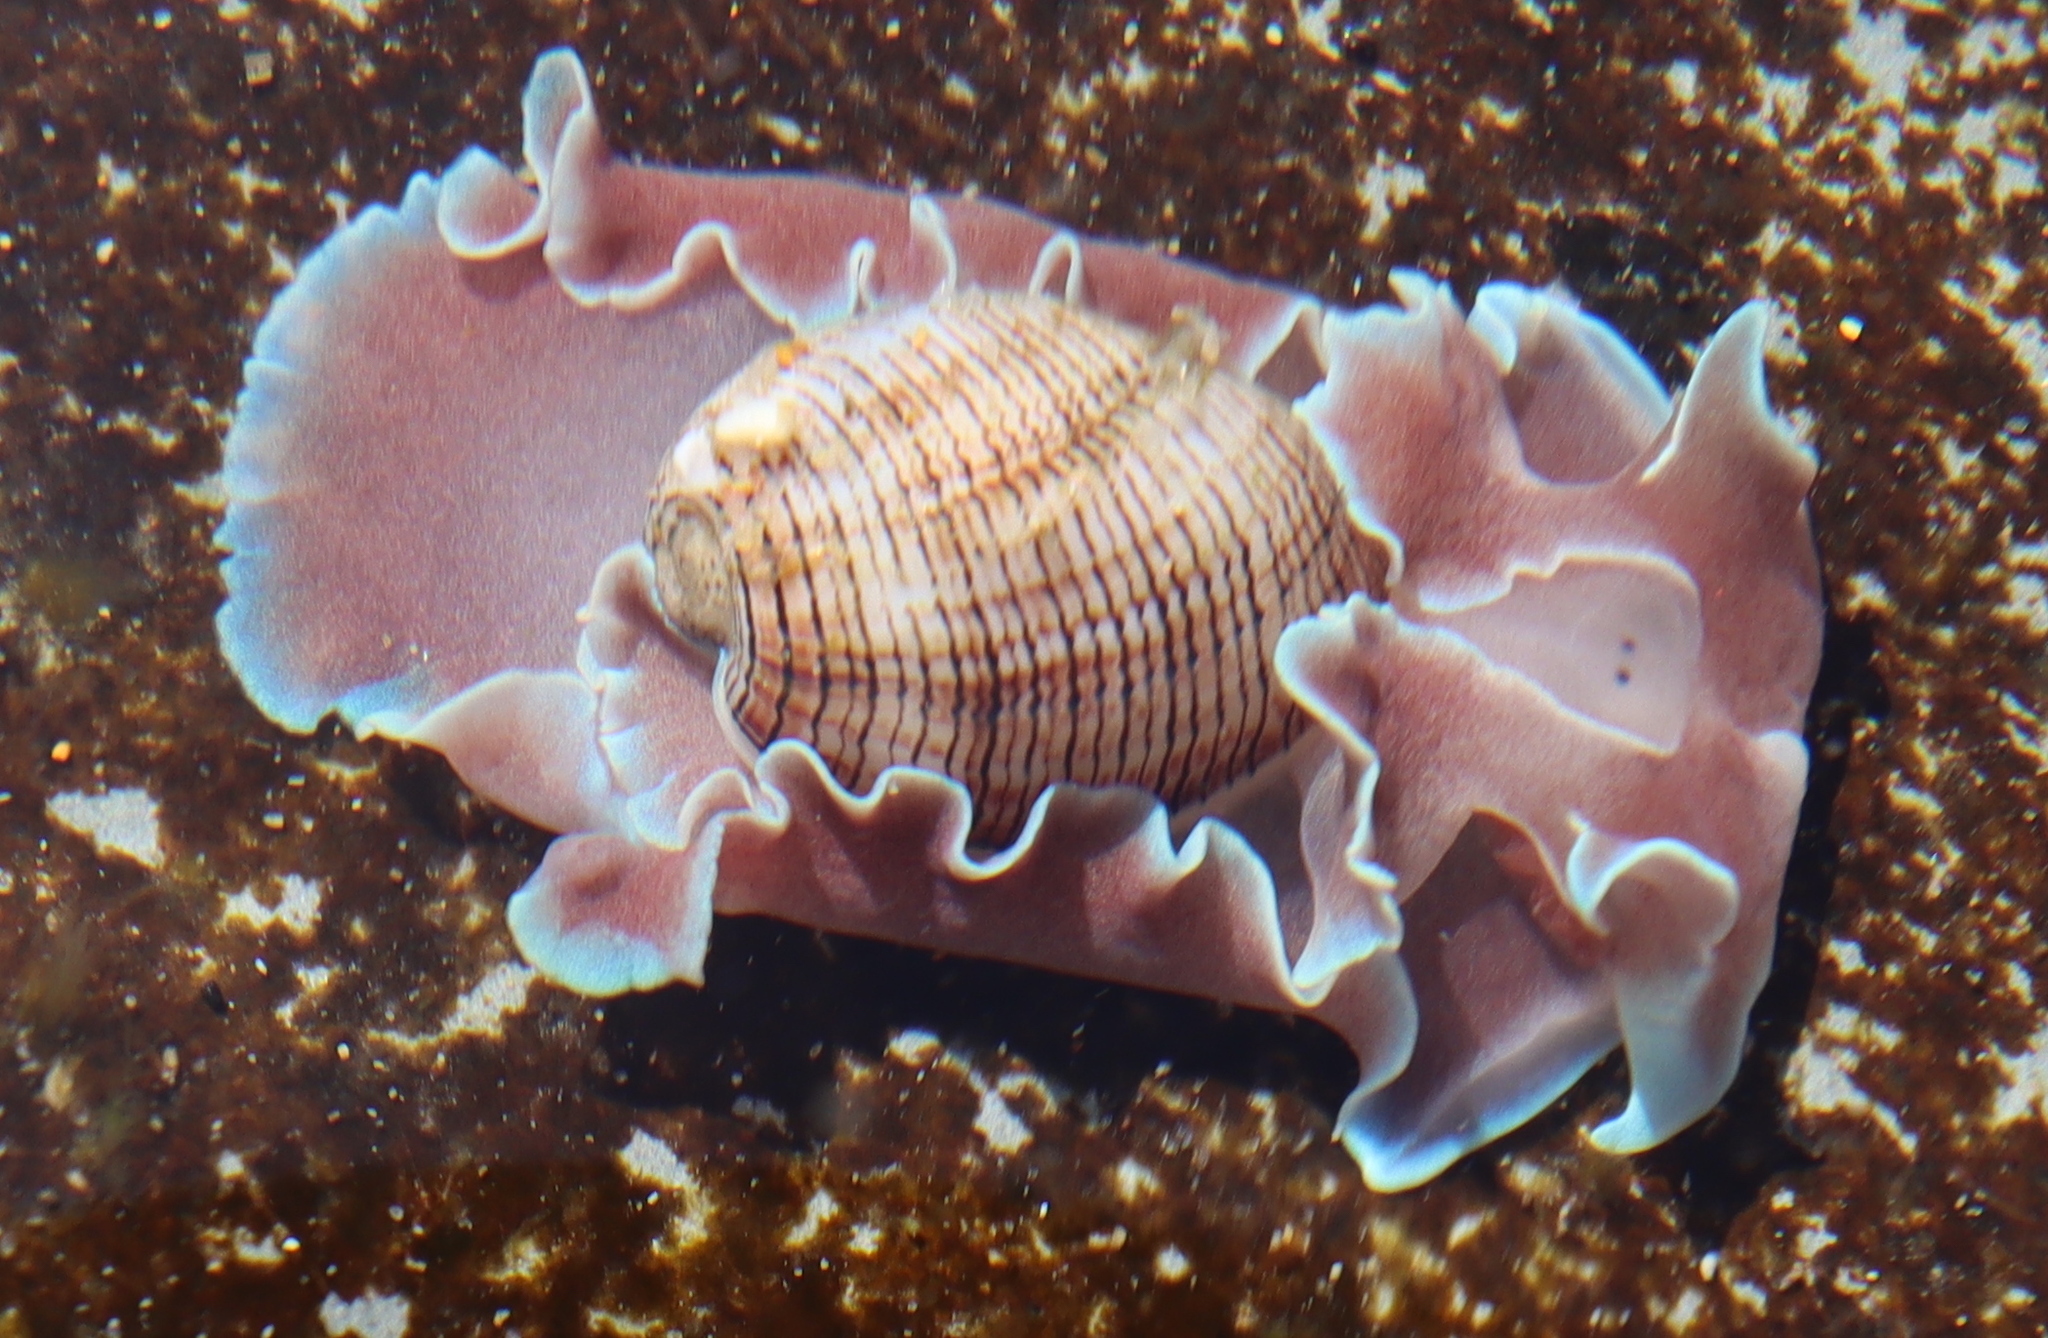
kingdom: Animalia
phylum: Mollusca
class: Gastropoda
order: Cephalaspidea
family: Aplustridae
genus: Hydatina
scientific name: Hydatina physis
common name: Brown-line paperbubble
